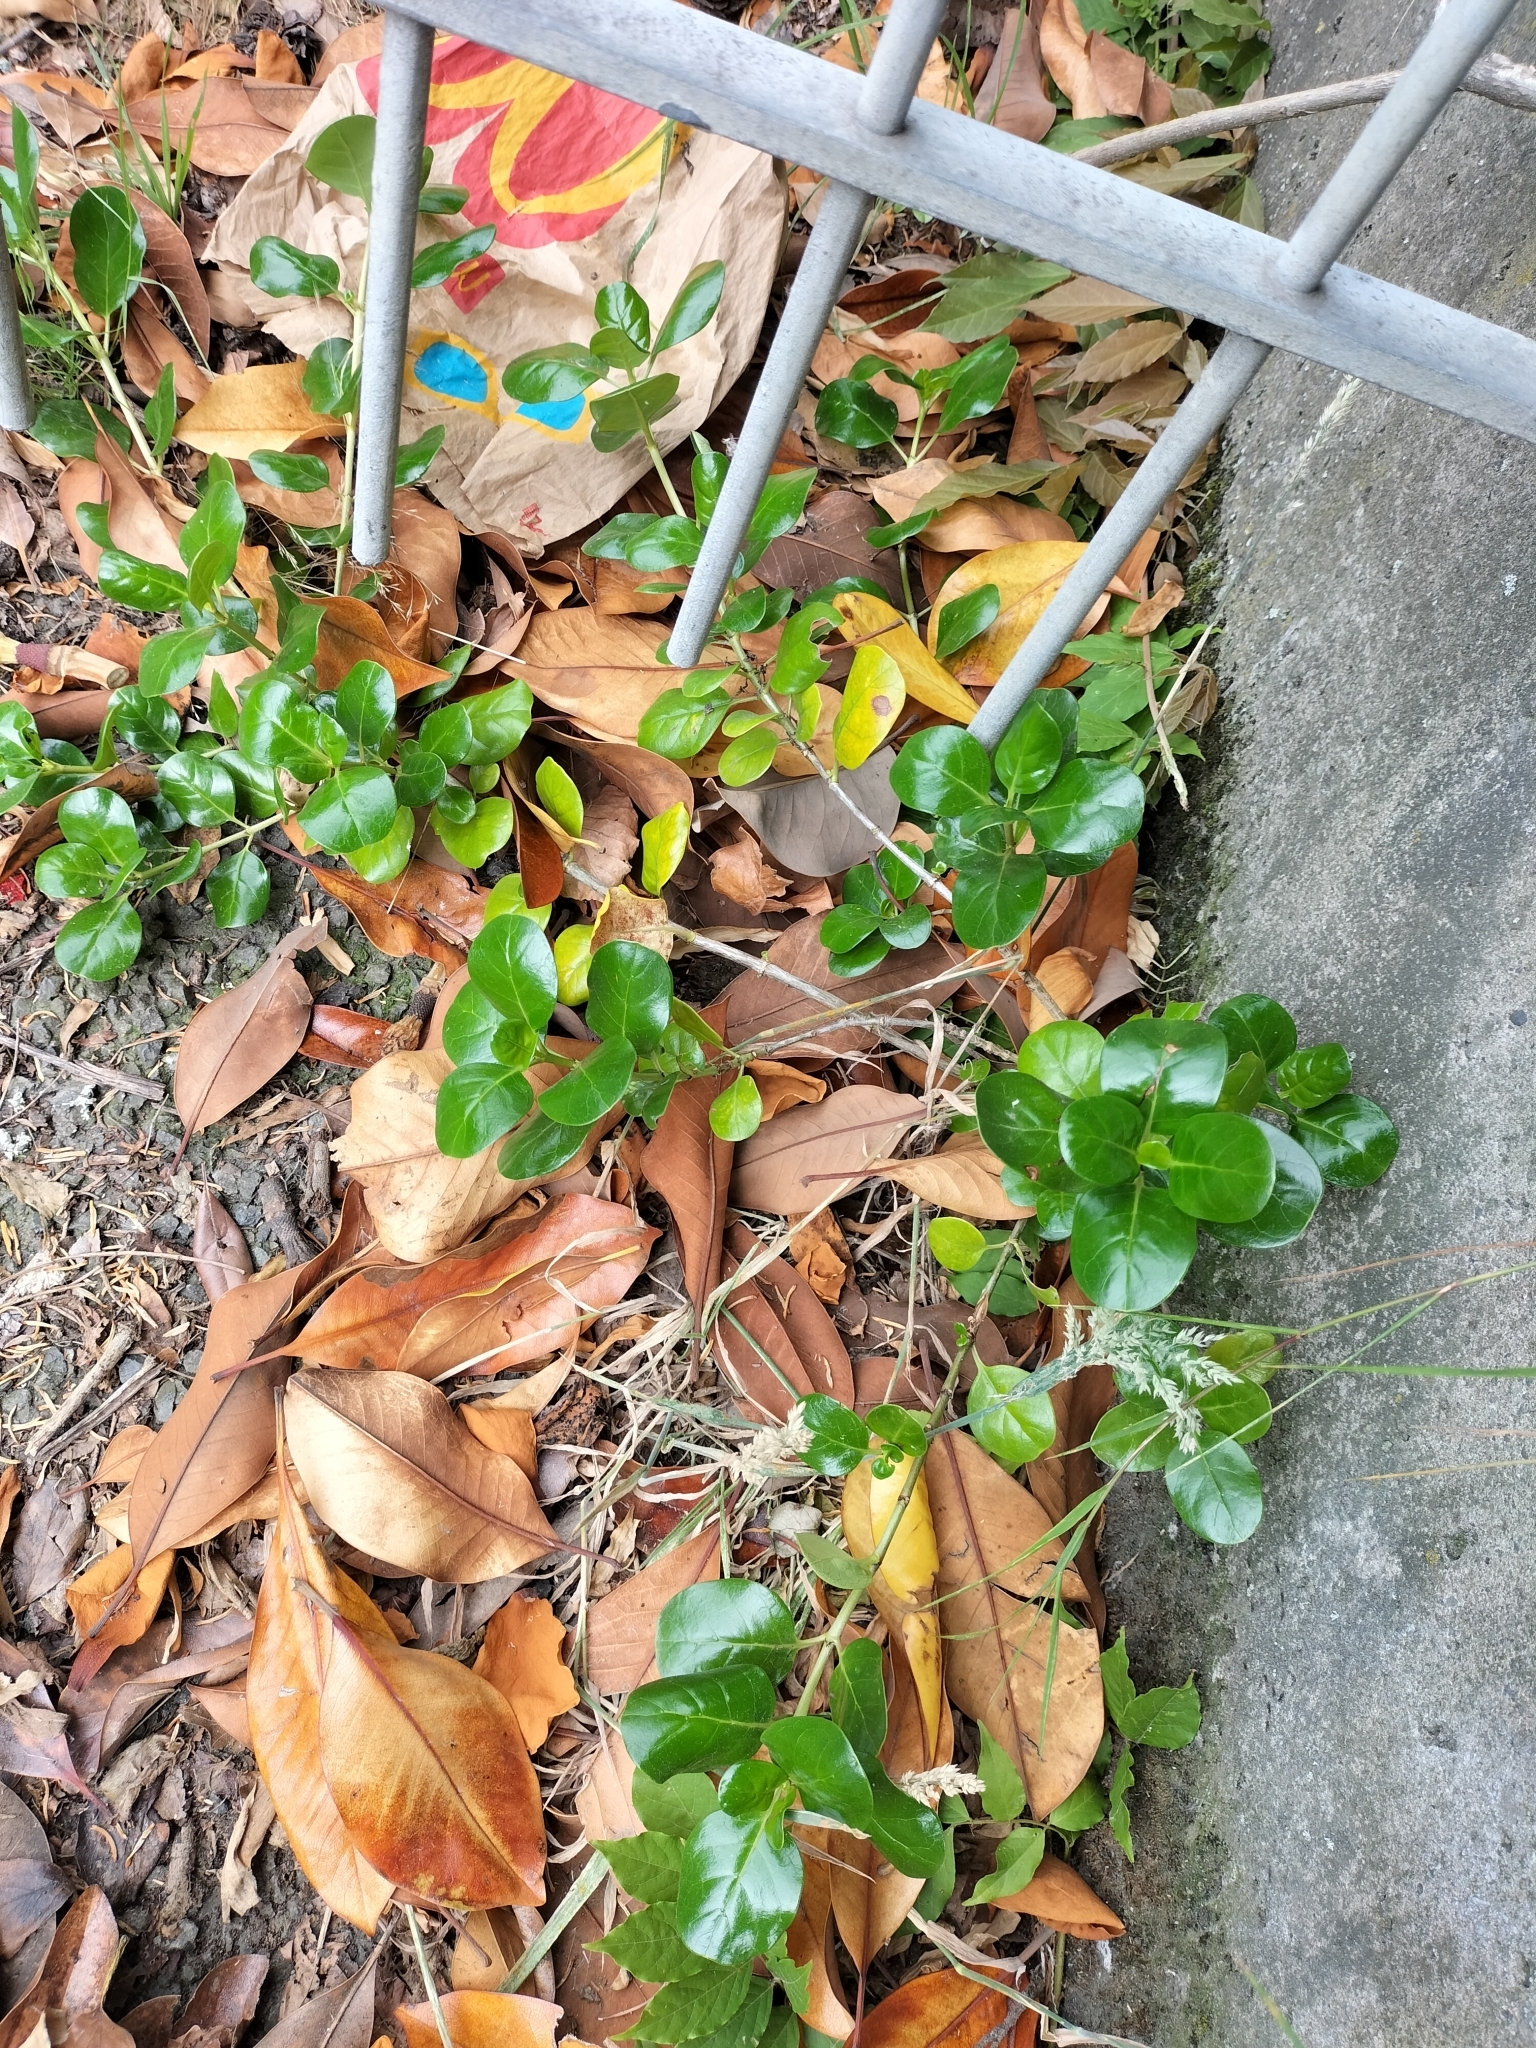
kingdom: Plantae
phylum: Tracheophyta
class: Magnoliopsida
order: Gentianales
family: Rubiaceae
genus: Coprosma
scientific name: Coprosma repens
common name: Tree bedstraw
